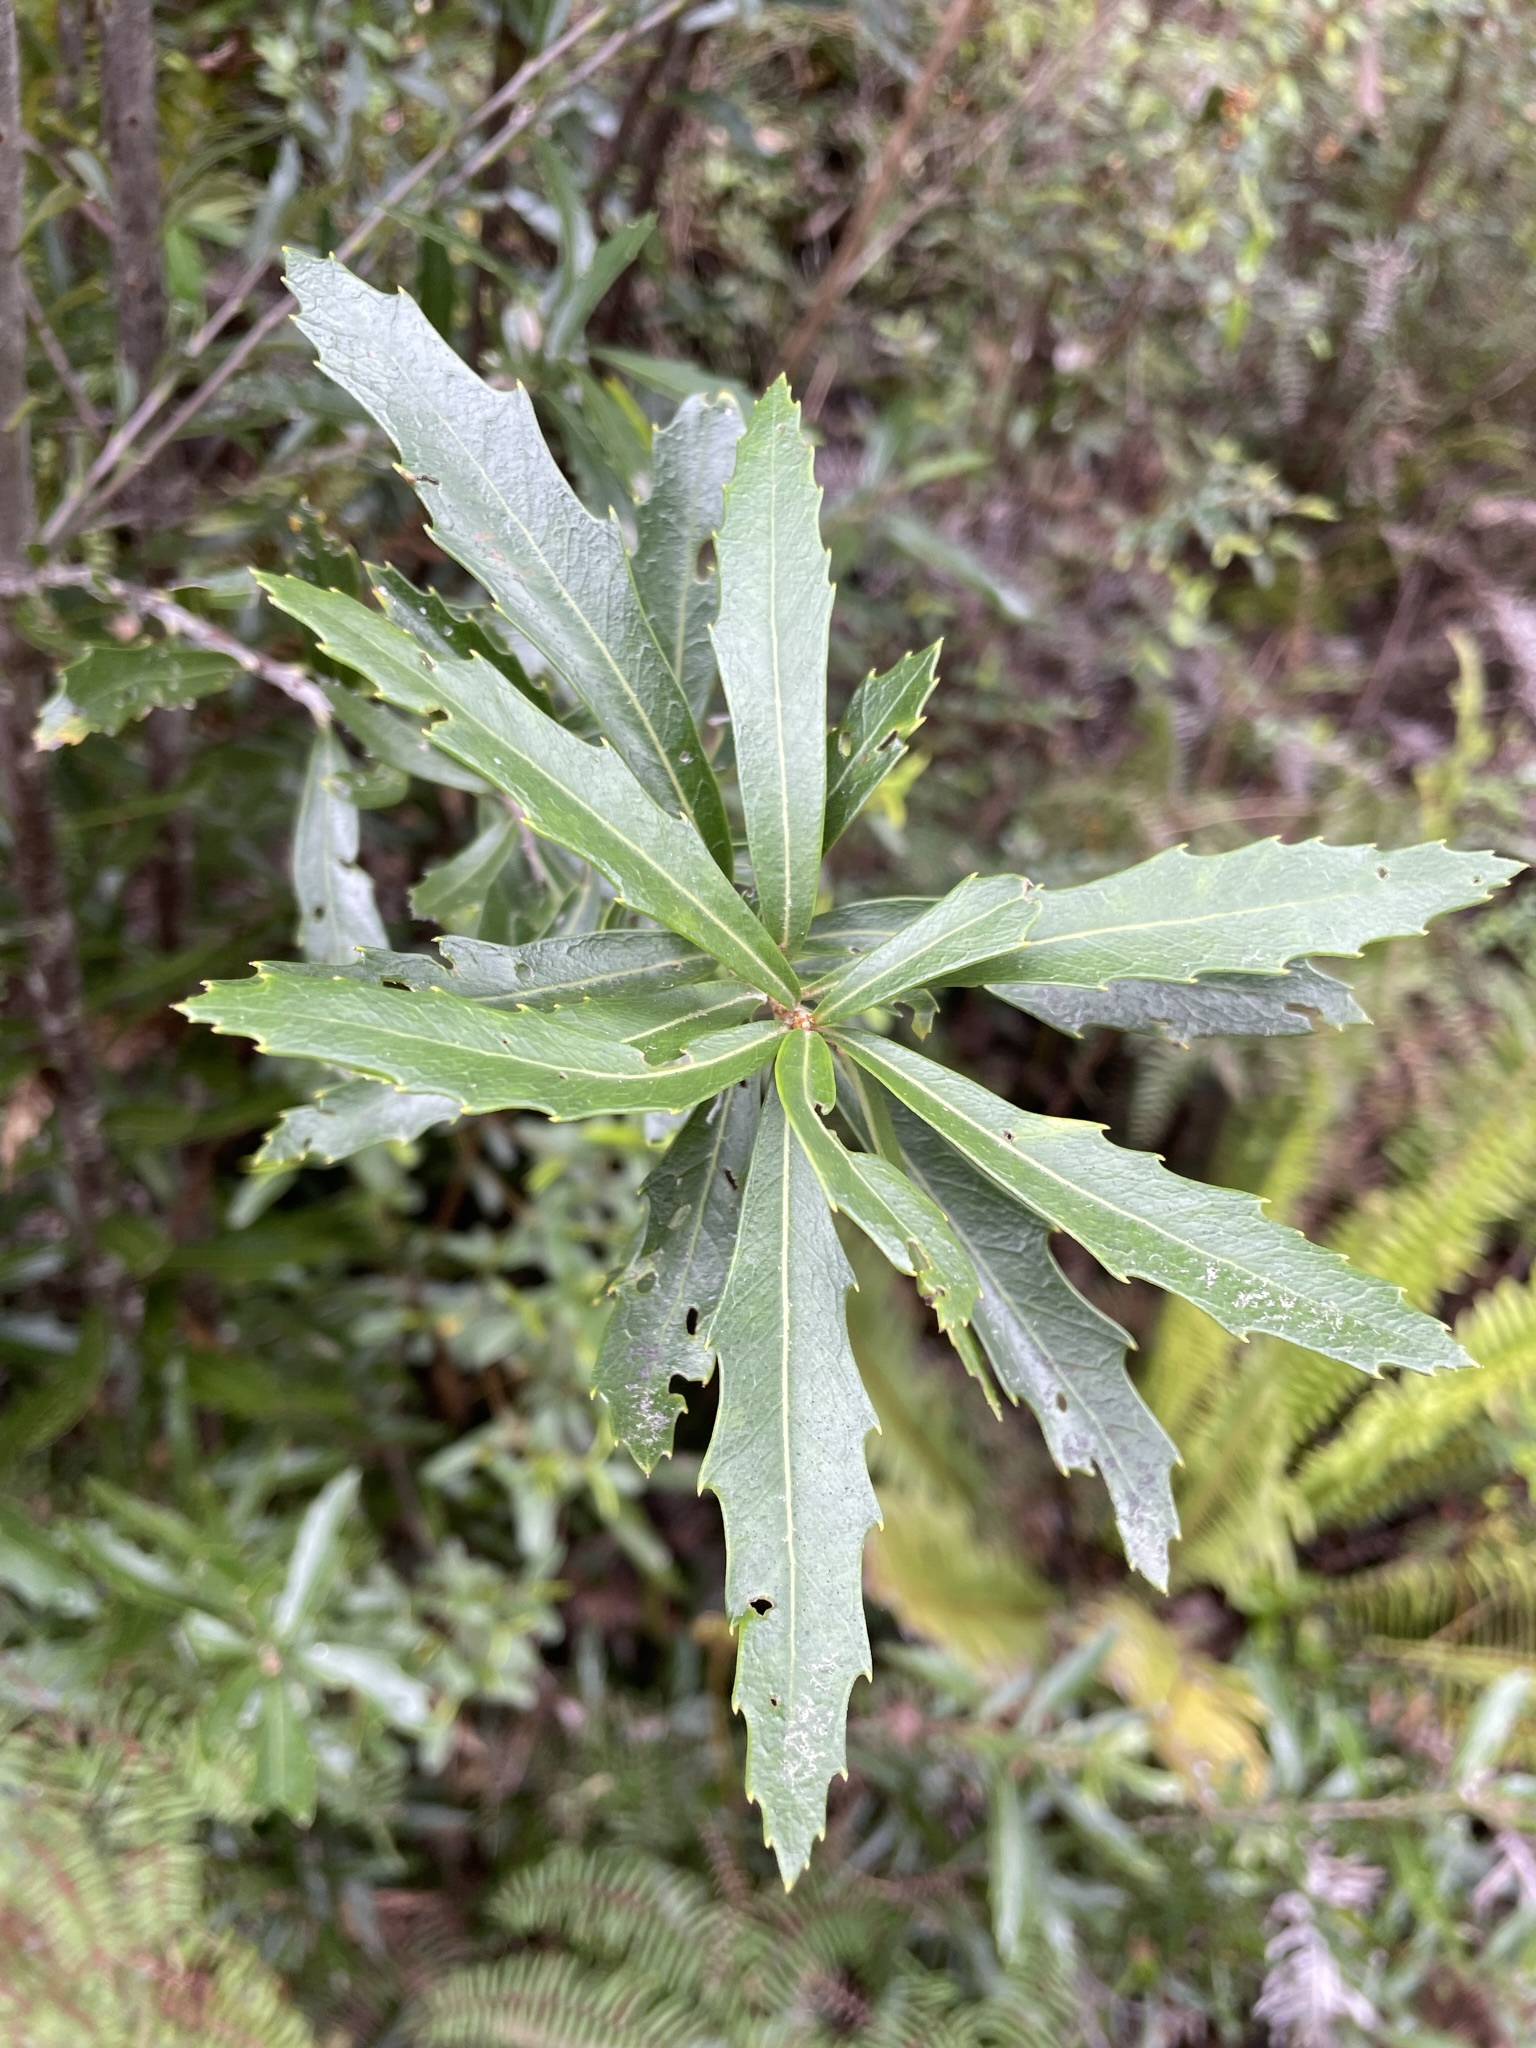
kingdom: Plantae
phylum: Tracheophyta
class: Magnoliopsida
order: Proteales
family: Proteaceae
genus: Orites
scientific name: Orites diversifolius
